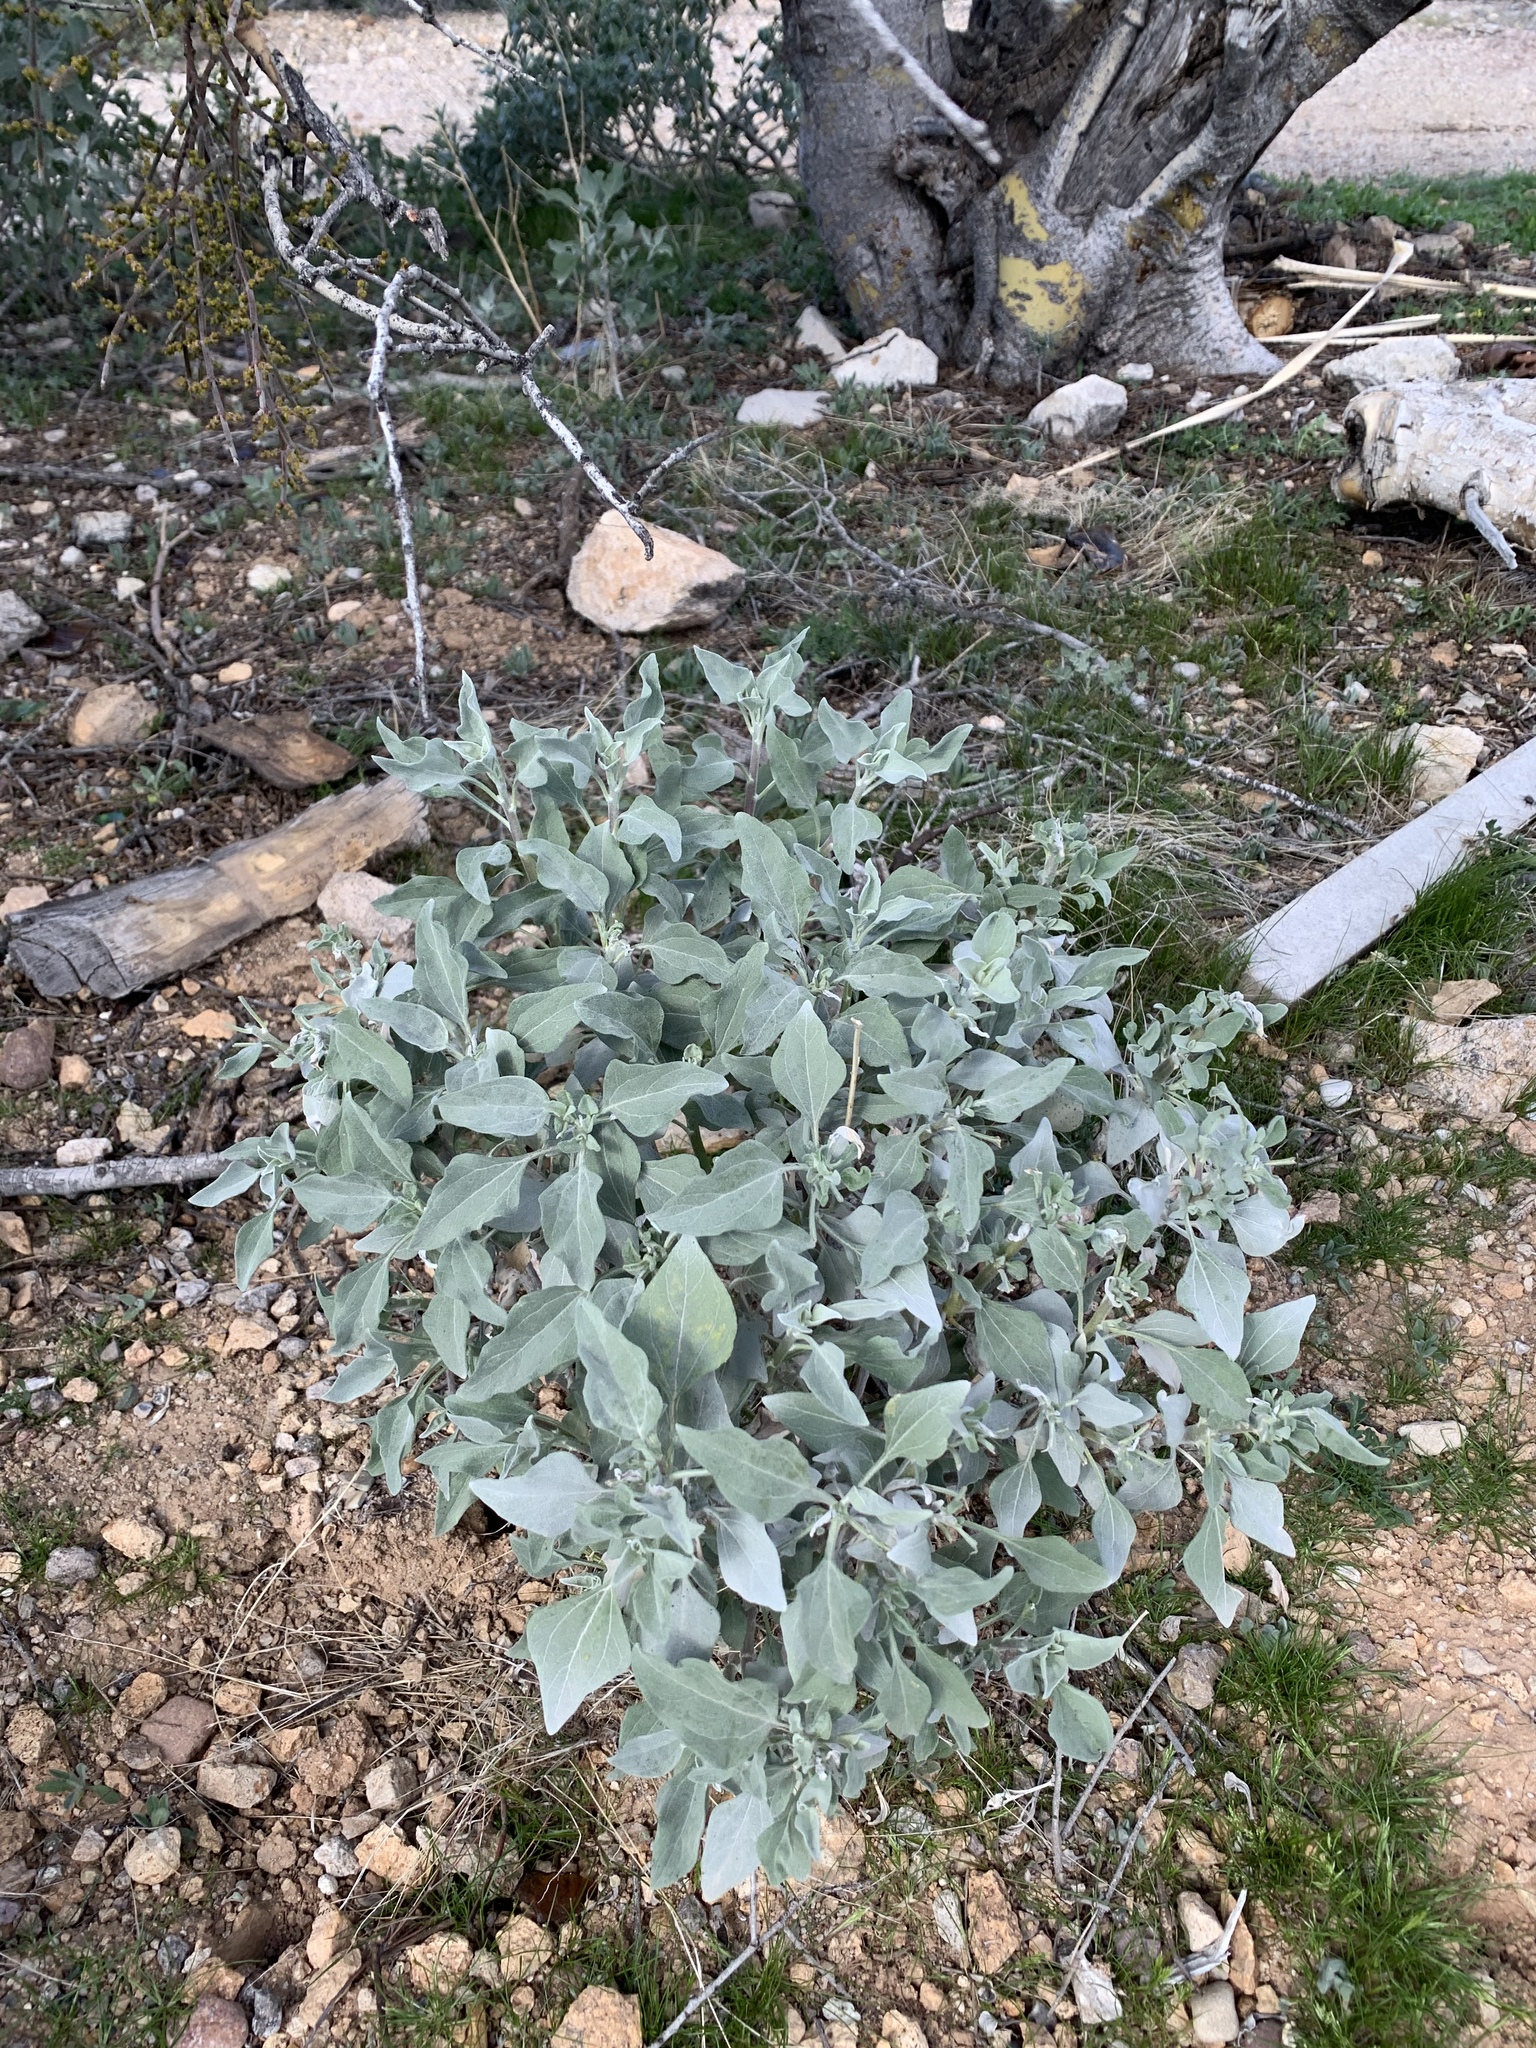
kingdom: Plantae
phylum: Tracheophyta
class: Magnoliopsida
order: Asterales
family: Asteraceae
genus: Encelia
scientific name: Encelia farinosa
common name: Brittlebush
